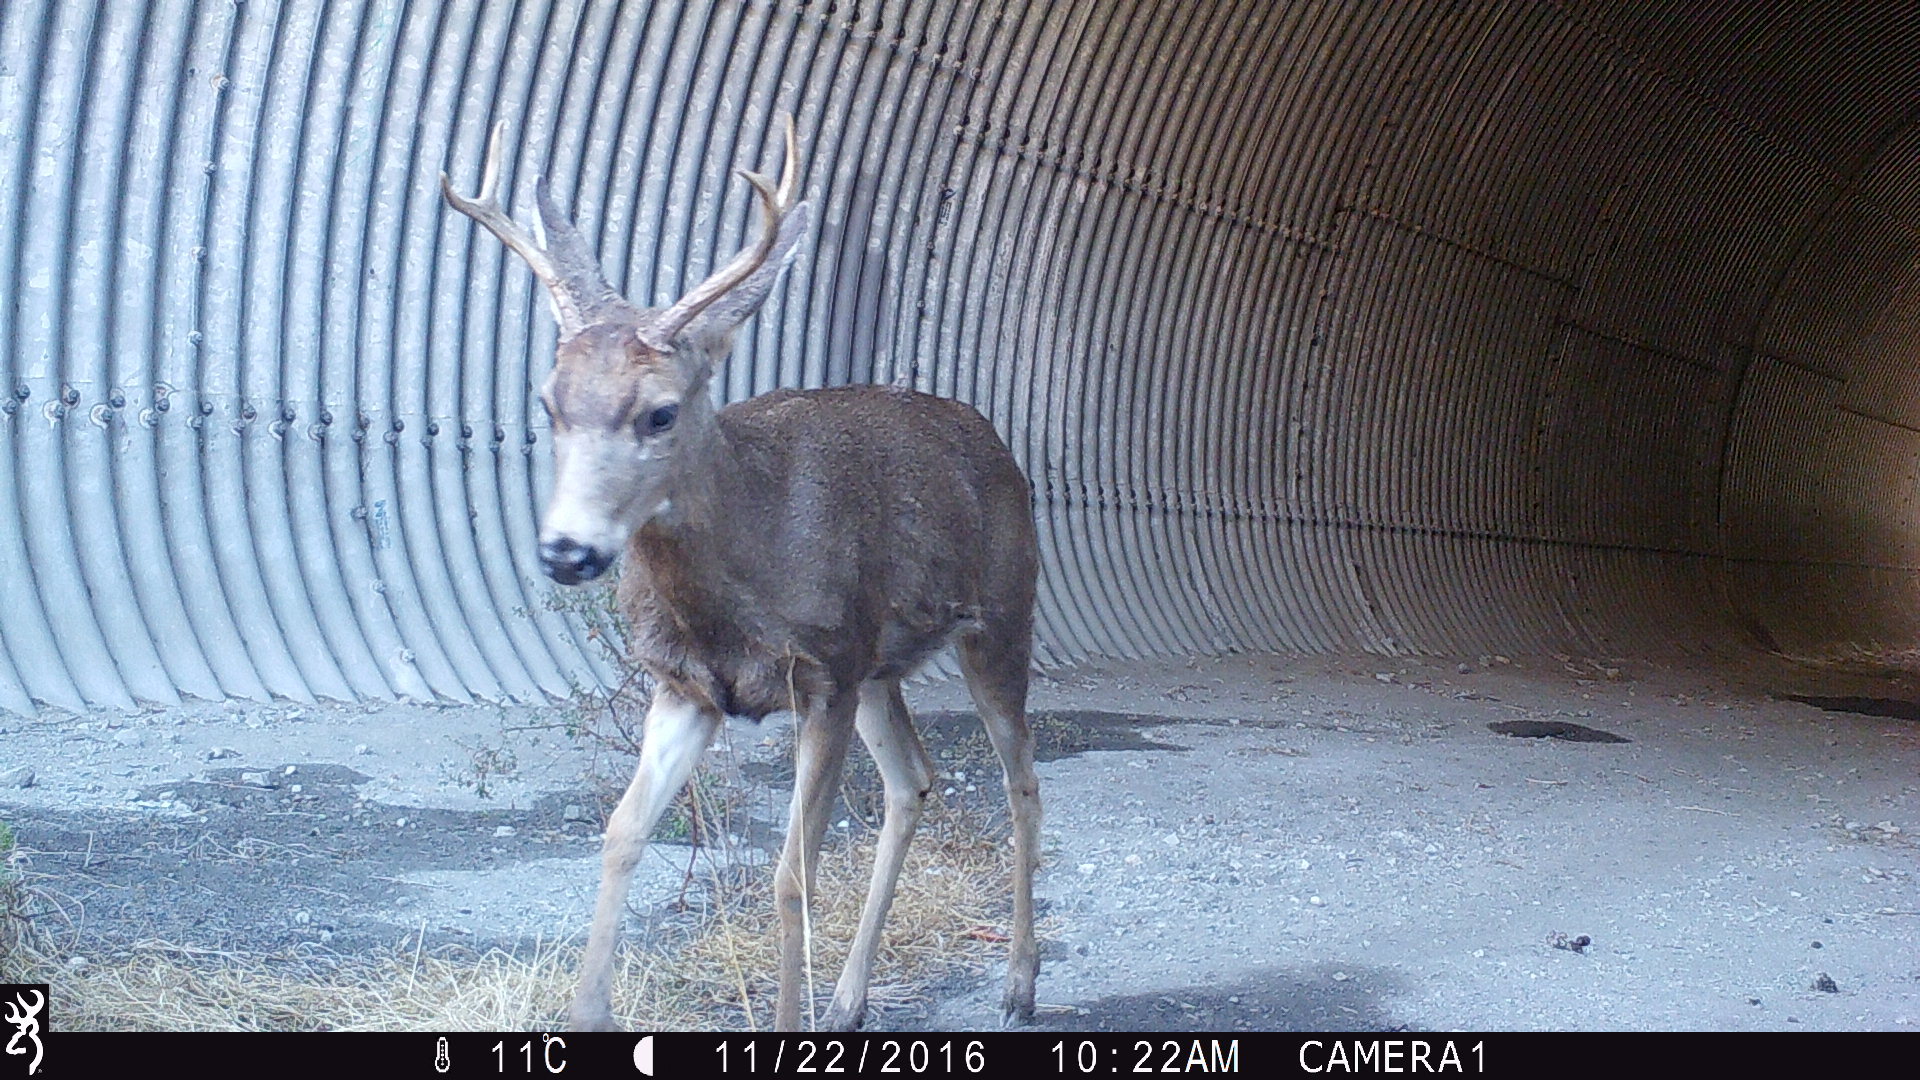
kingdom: Animalia
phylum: Chordata
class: Mammalia
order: Artiodactyla
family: Cervidae
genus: Odocoileus
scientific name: Odocoileus hemionus
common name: Mule deer
